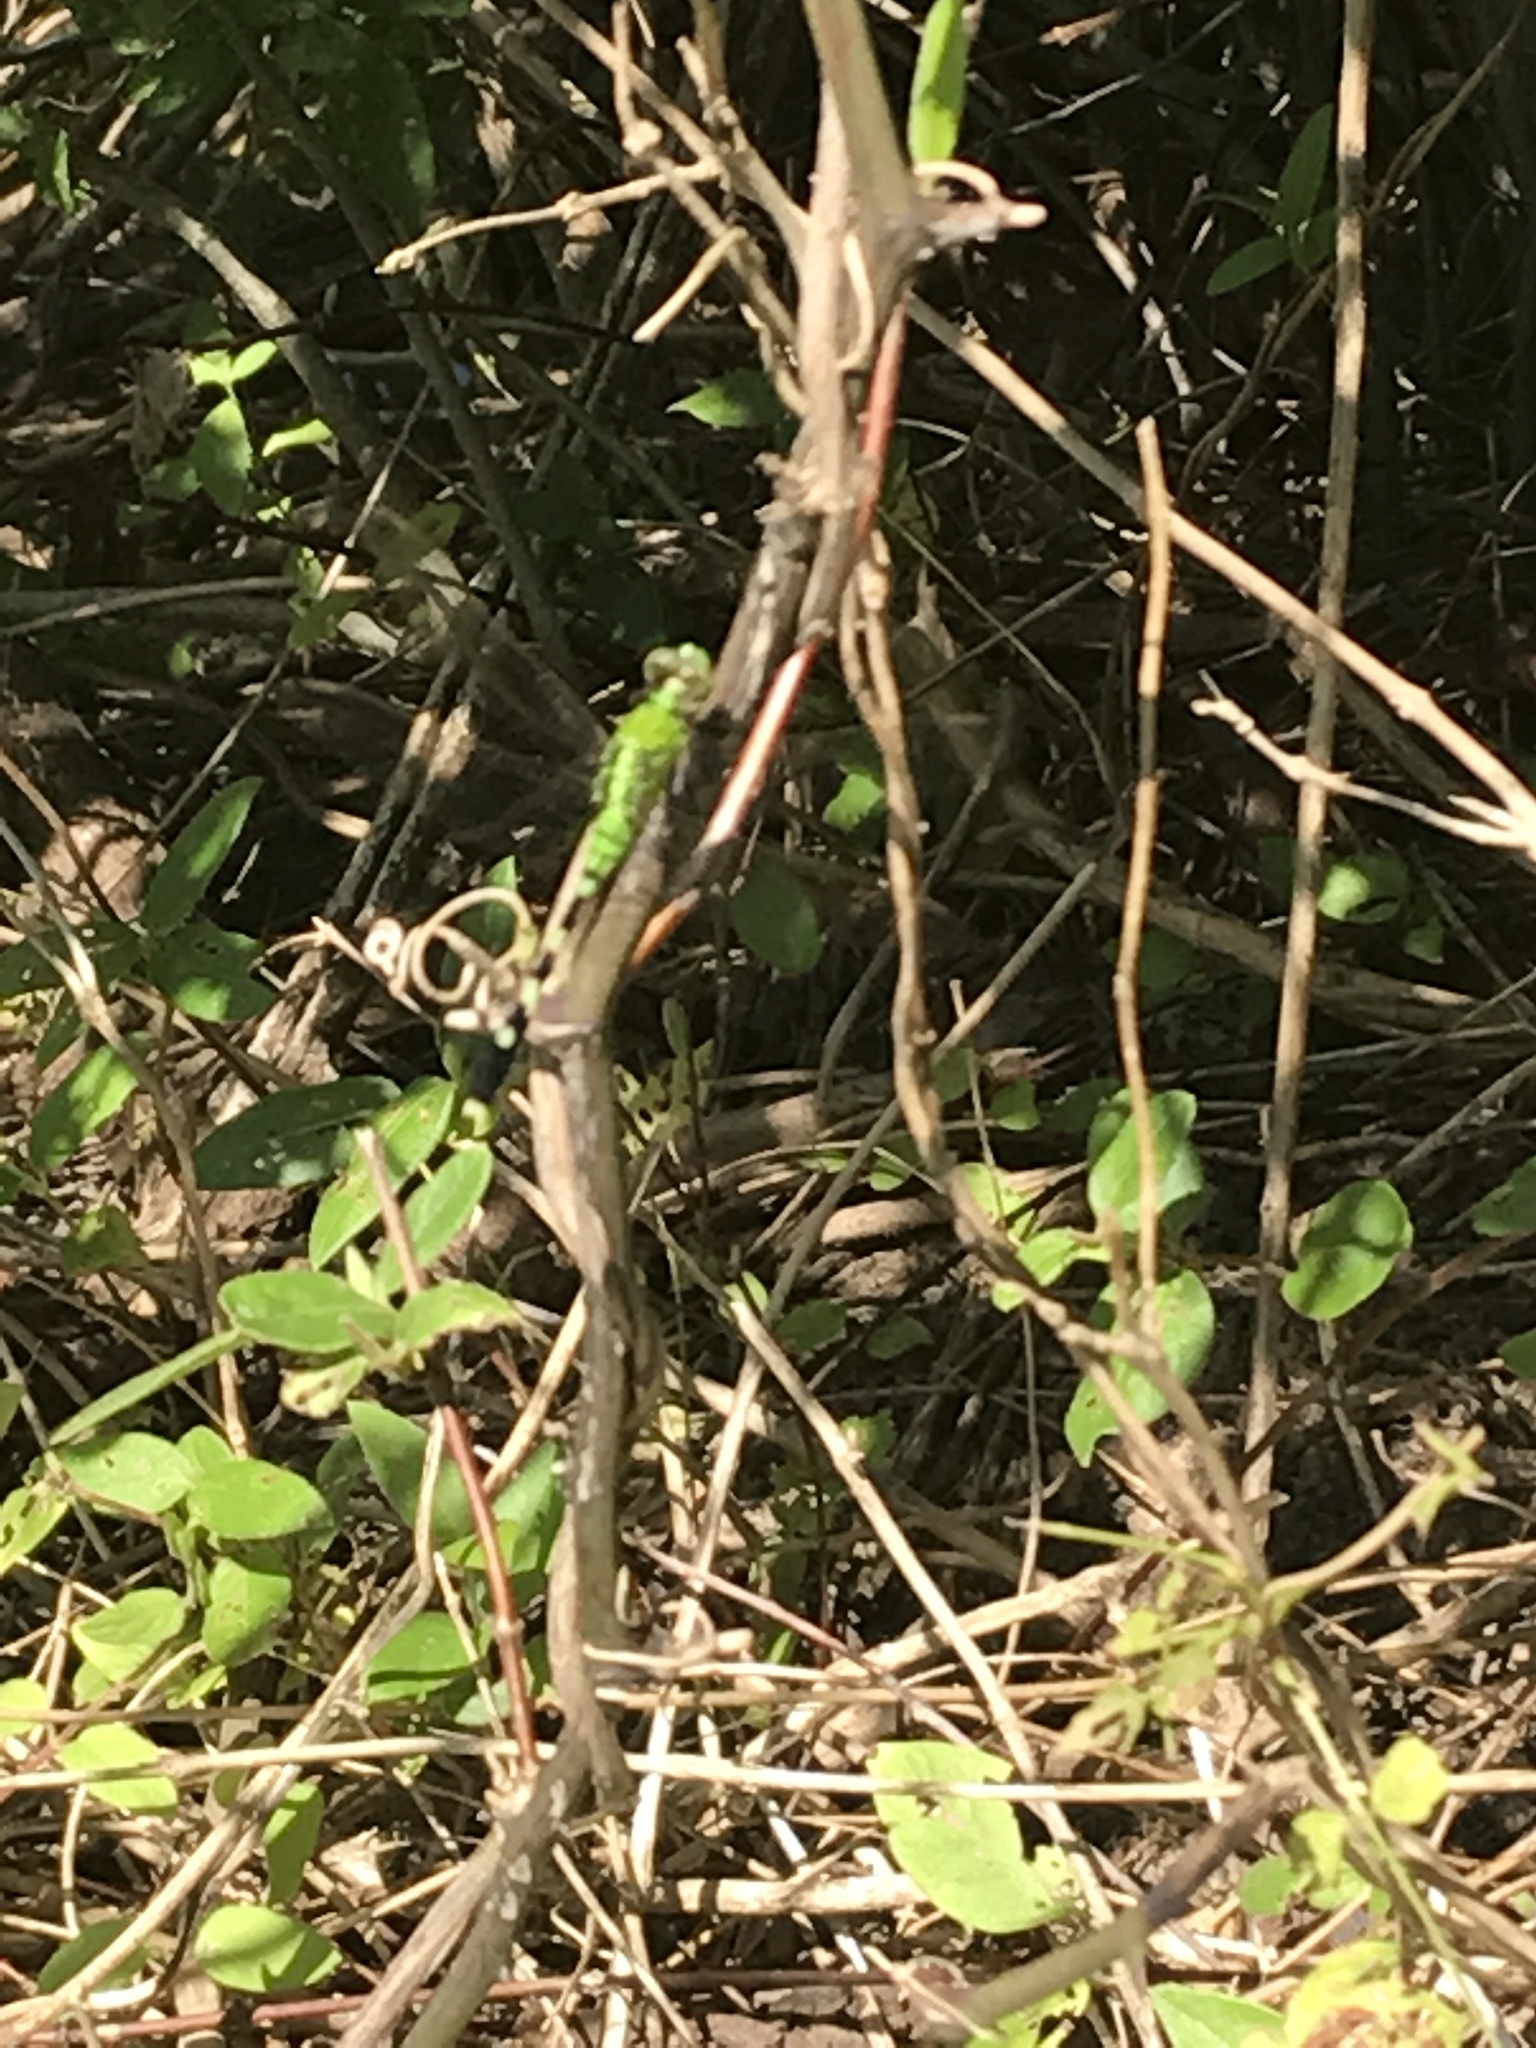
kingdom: Animalia
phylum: Arthropoda
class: Insecta
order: Odonata
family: Libellulidae
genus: Erythemis
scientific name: Erythemis simplicicollis
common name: Eastern pondhawk
